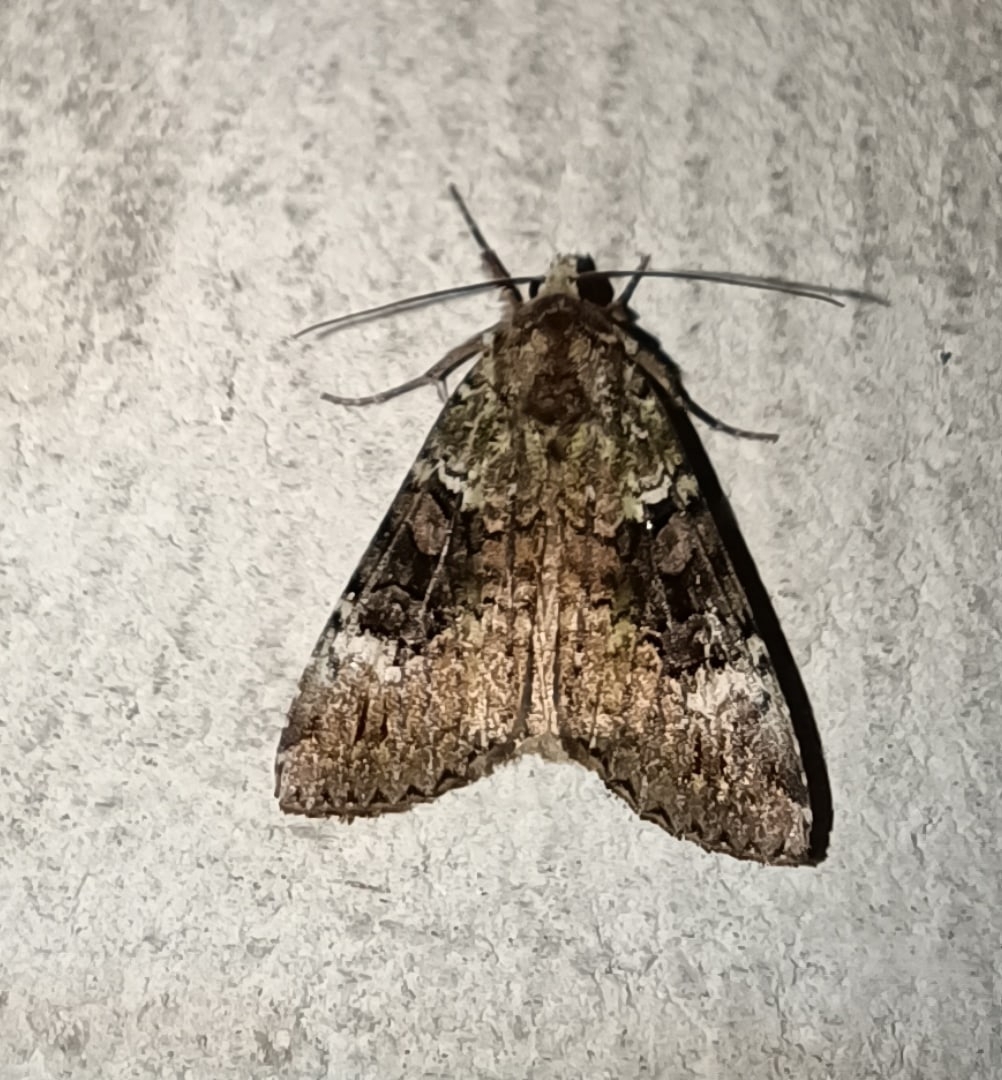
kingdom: Animalia
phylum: Arthropoda
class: Insecta
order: Lepidoptera
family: Noctuidae
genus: Anaplectoides
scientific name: Anaplectoides prasina
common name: Green arches
